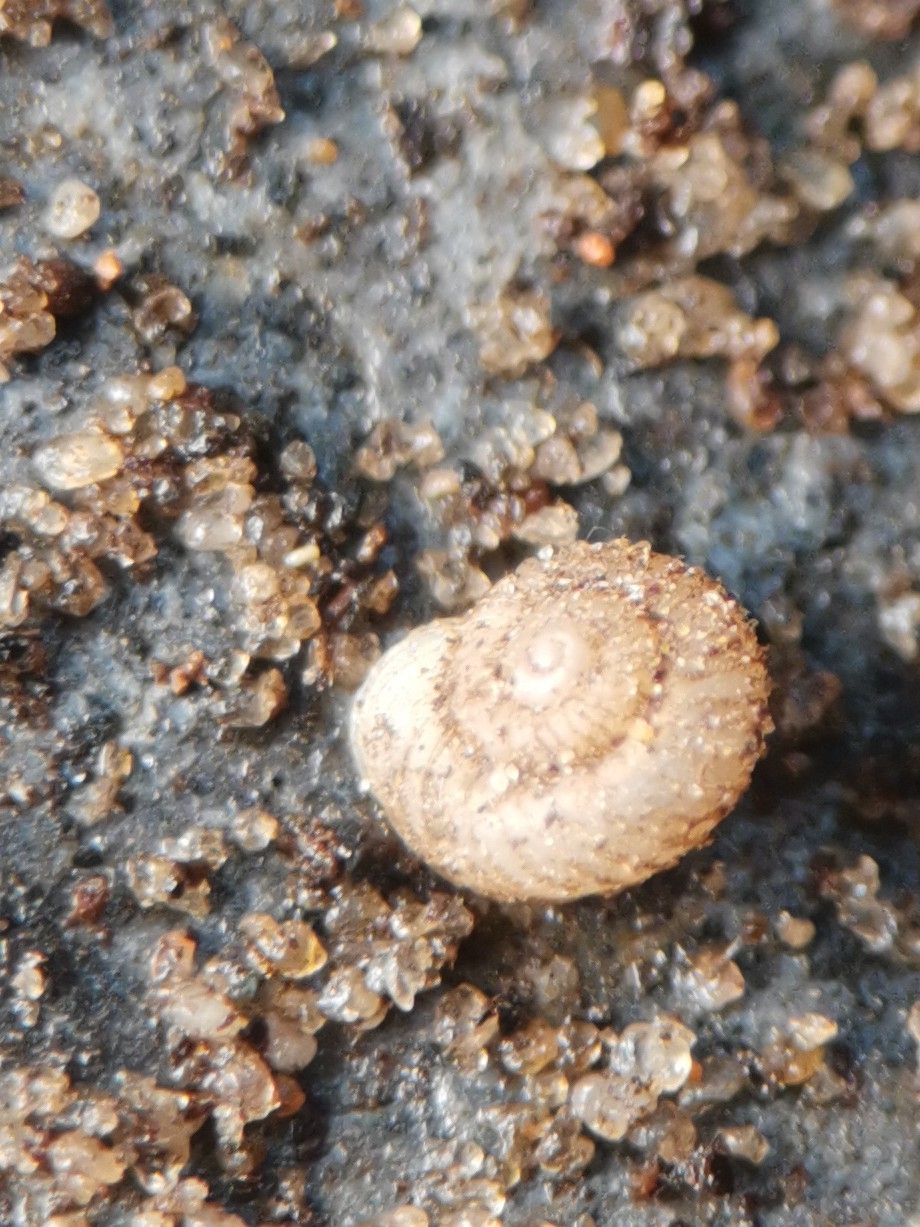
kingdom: Animalia
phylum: Mollusca
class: Gastropoda
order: Stylommatophora
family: Valloniidae
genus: Vallonia
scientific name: Vallonia costata
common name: Ribbed grass snail
